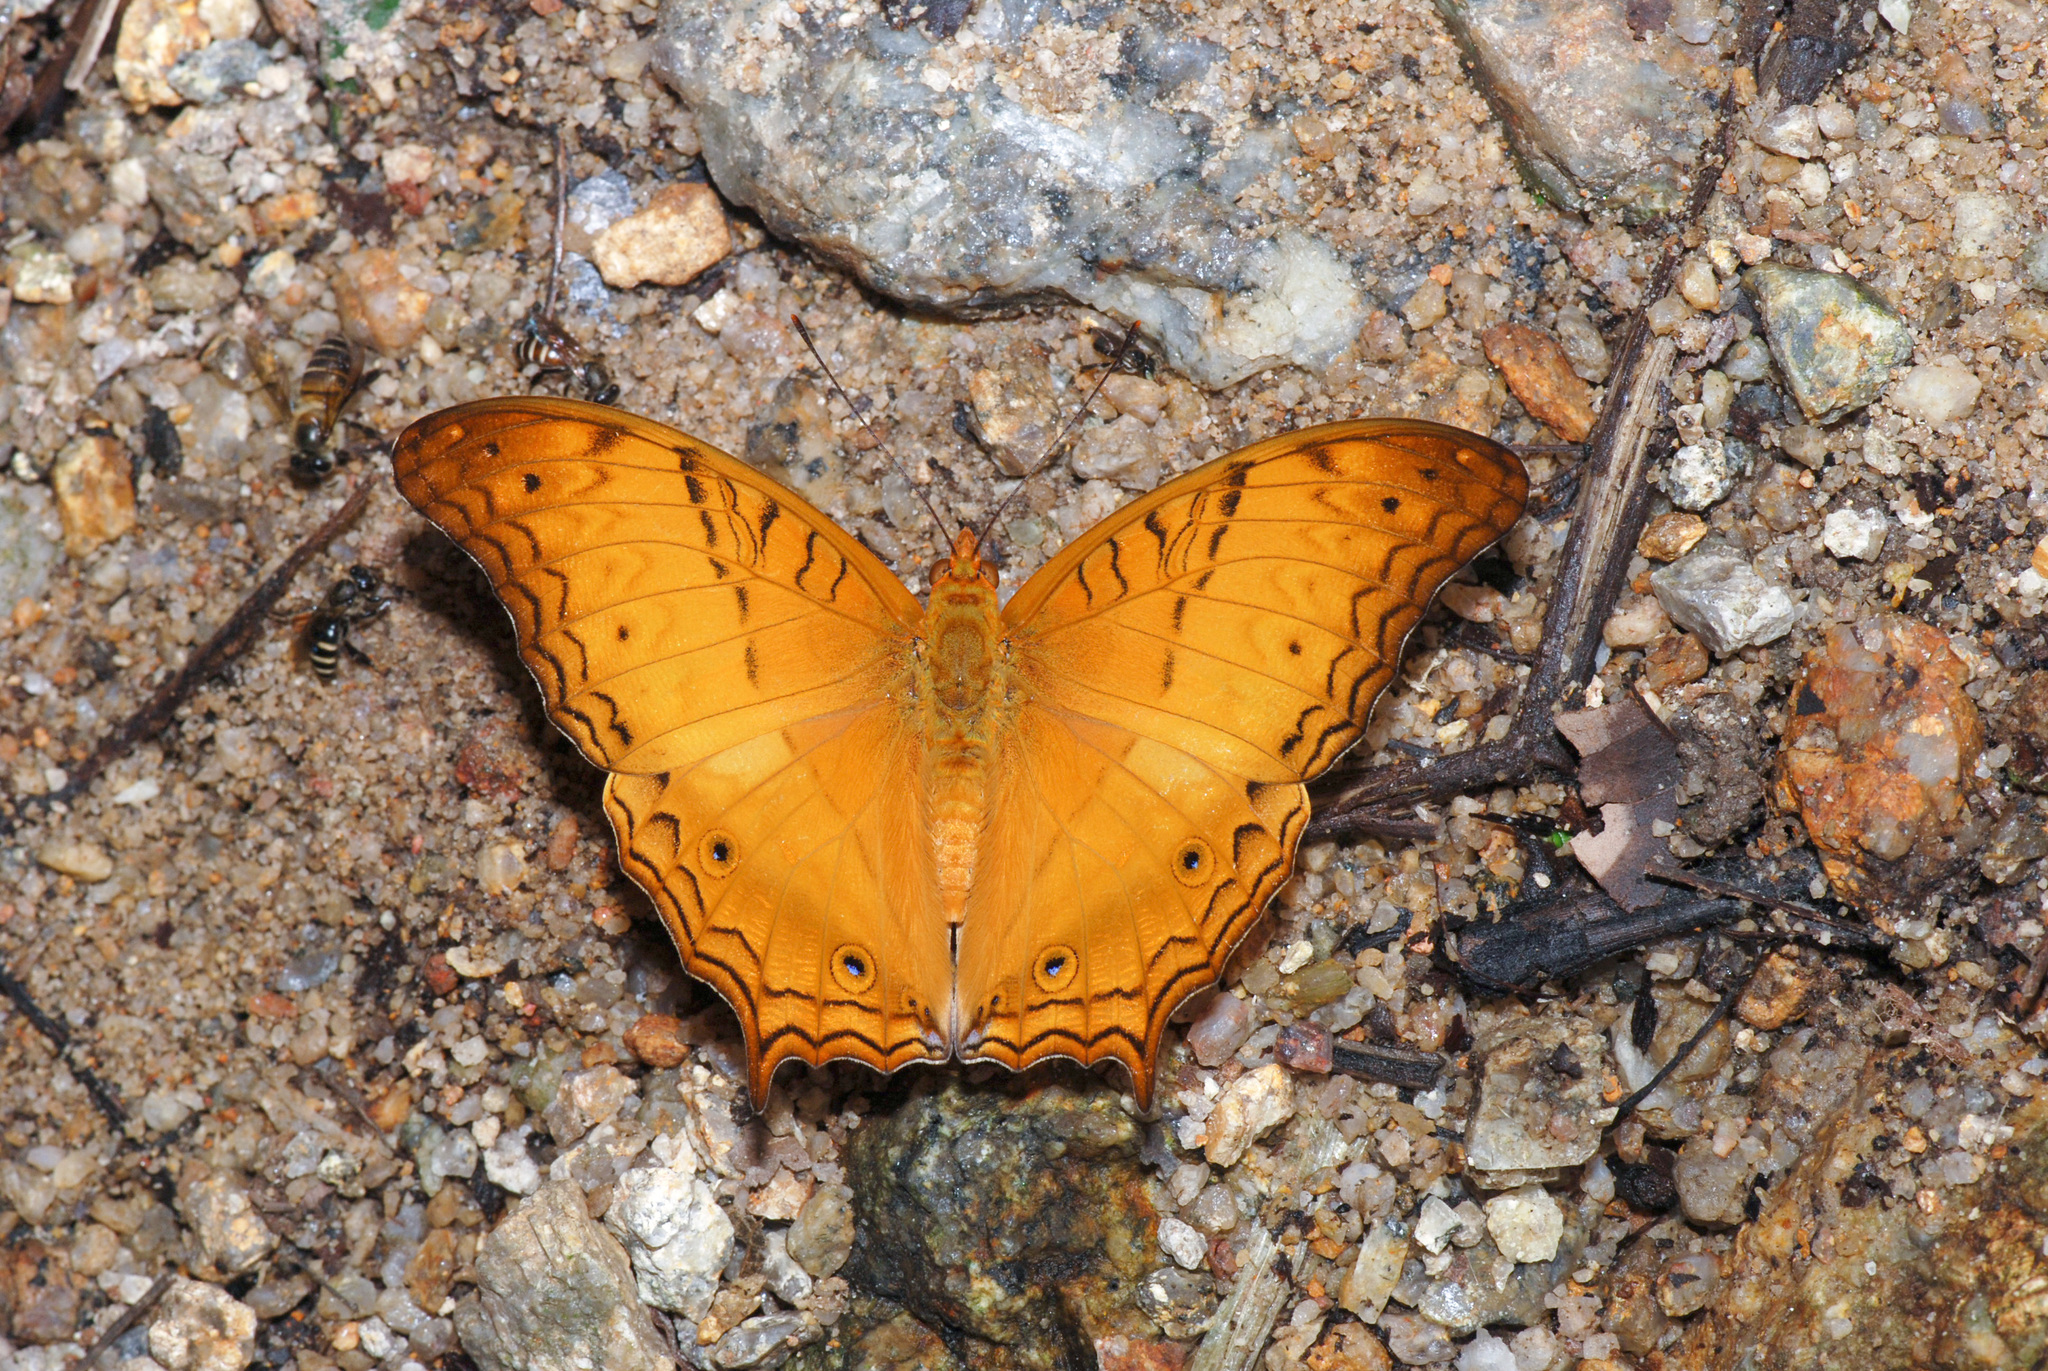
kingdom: Animalia
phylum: Arthropoda
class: Insecta
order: Lepidoptera
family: Nymphalidae
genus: Vindula
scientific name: Vindula deione
